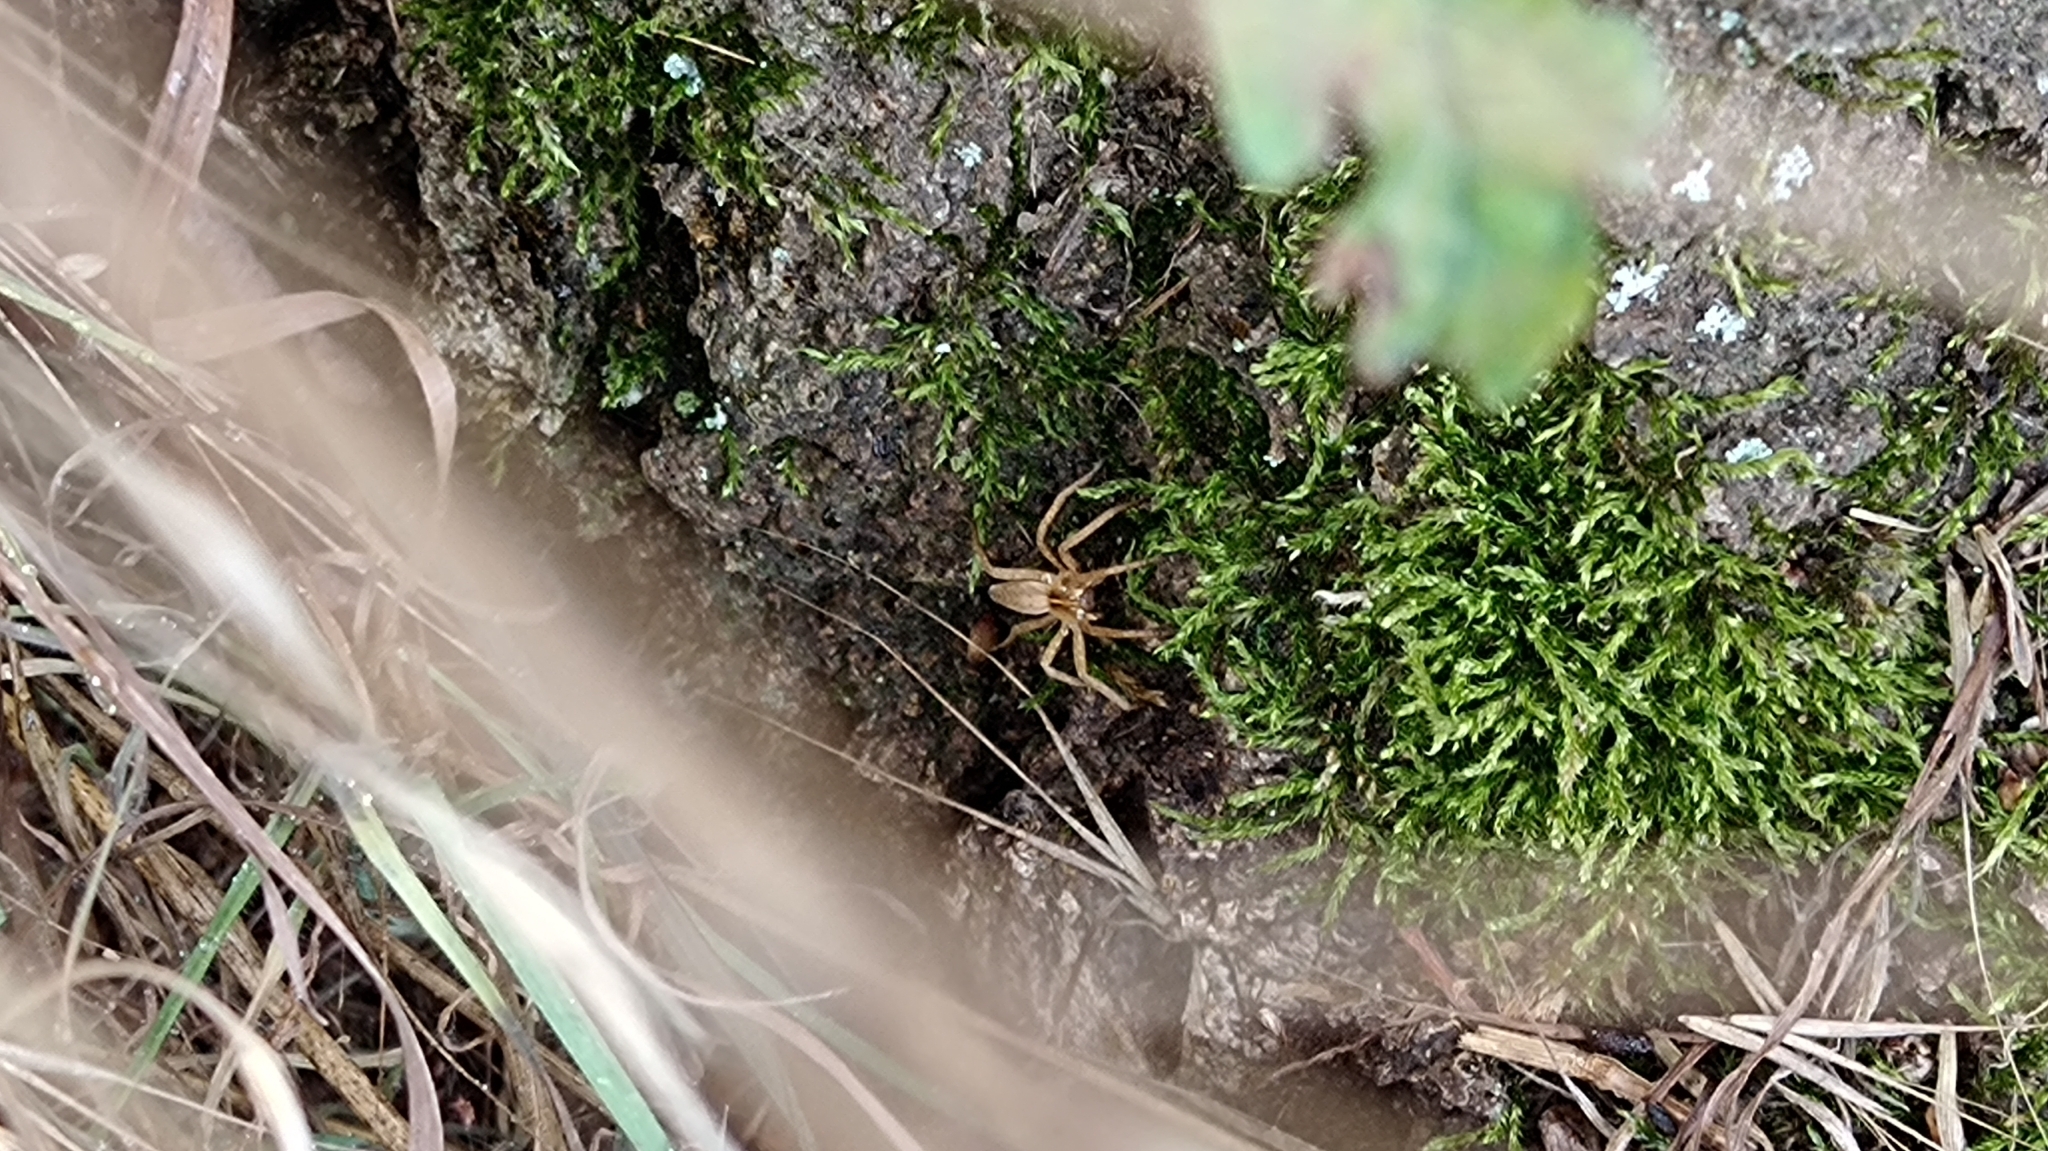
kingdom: Animalia
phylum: Arthropoda
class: Arachnida
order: Araneae
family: Pisauridae
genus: Pisaura
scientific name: Pisaura mirabilis
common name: Tent spider
